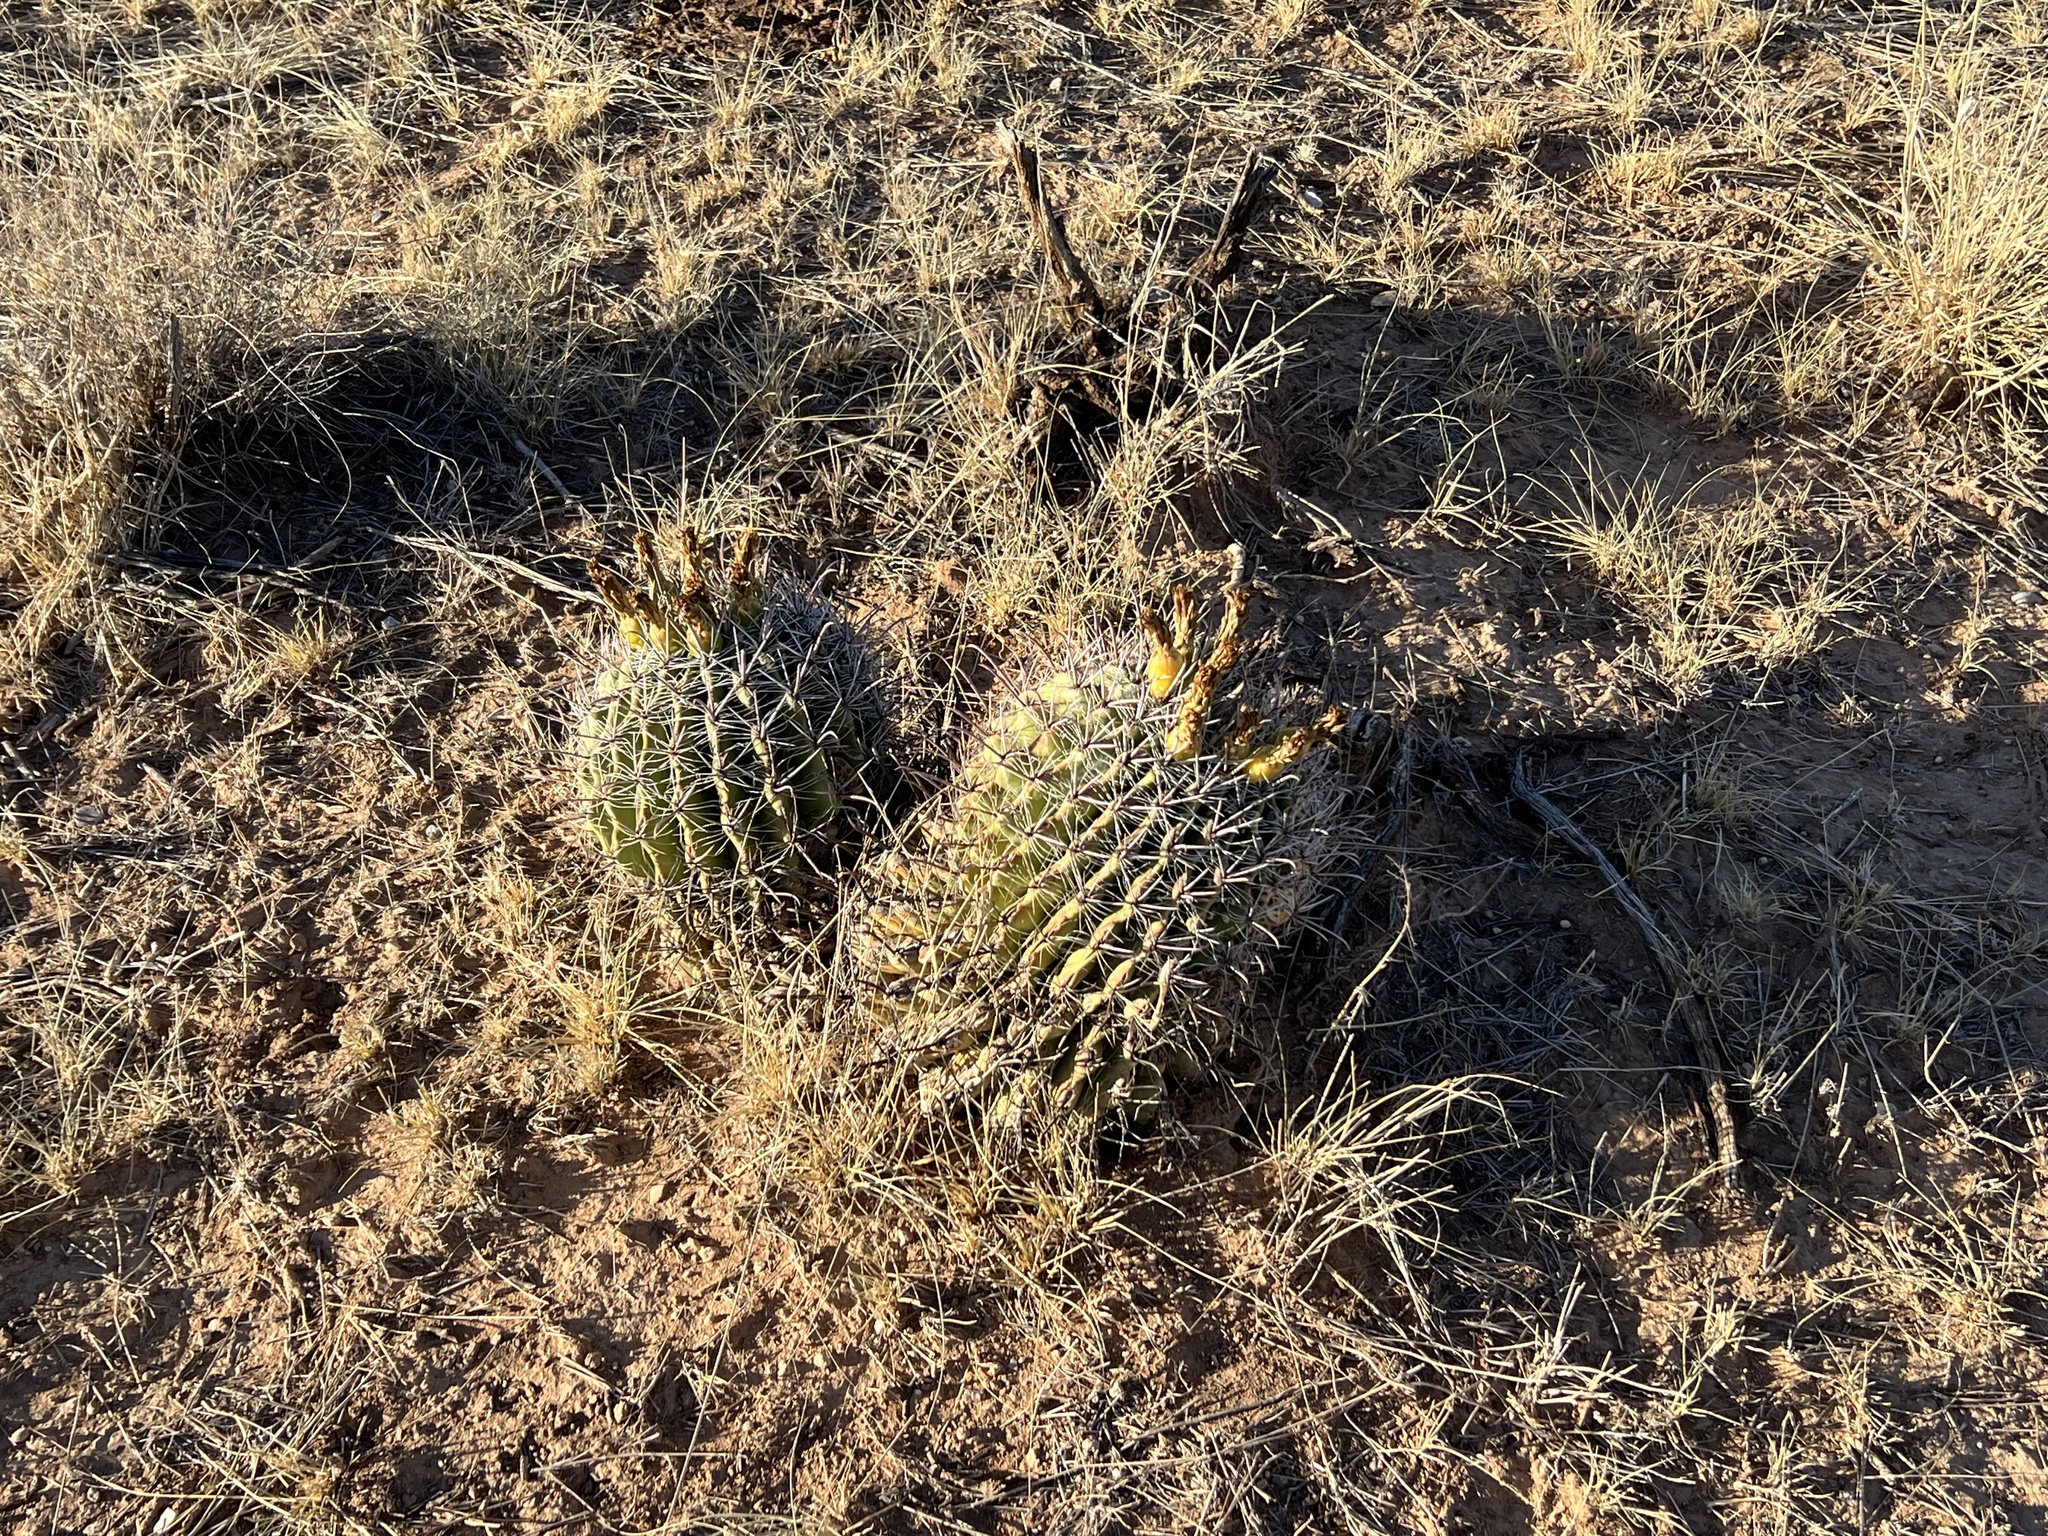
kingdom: Plantae
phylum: Tracheophyta
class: Magnoliopsida
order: Caryophyllales
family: Cactaceae
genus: Ferocactus
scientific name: Ferocactus wislizeni
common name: Candy barrel cactus
